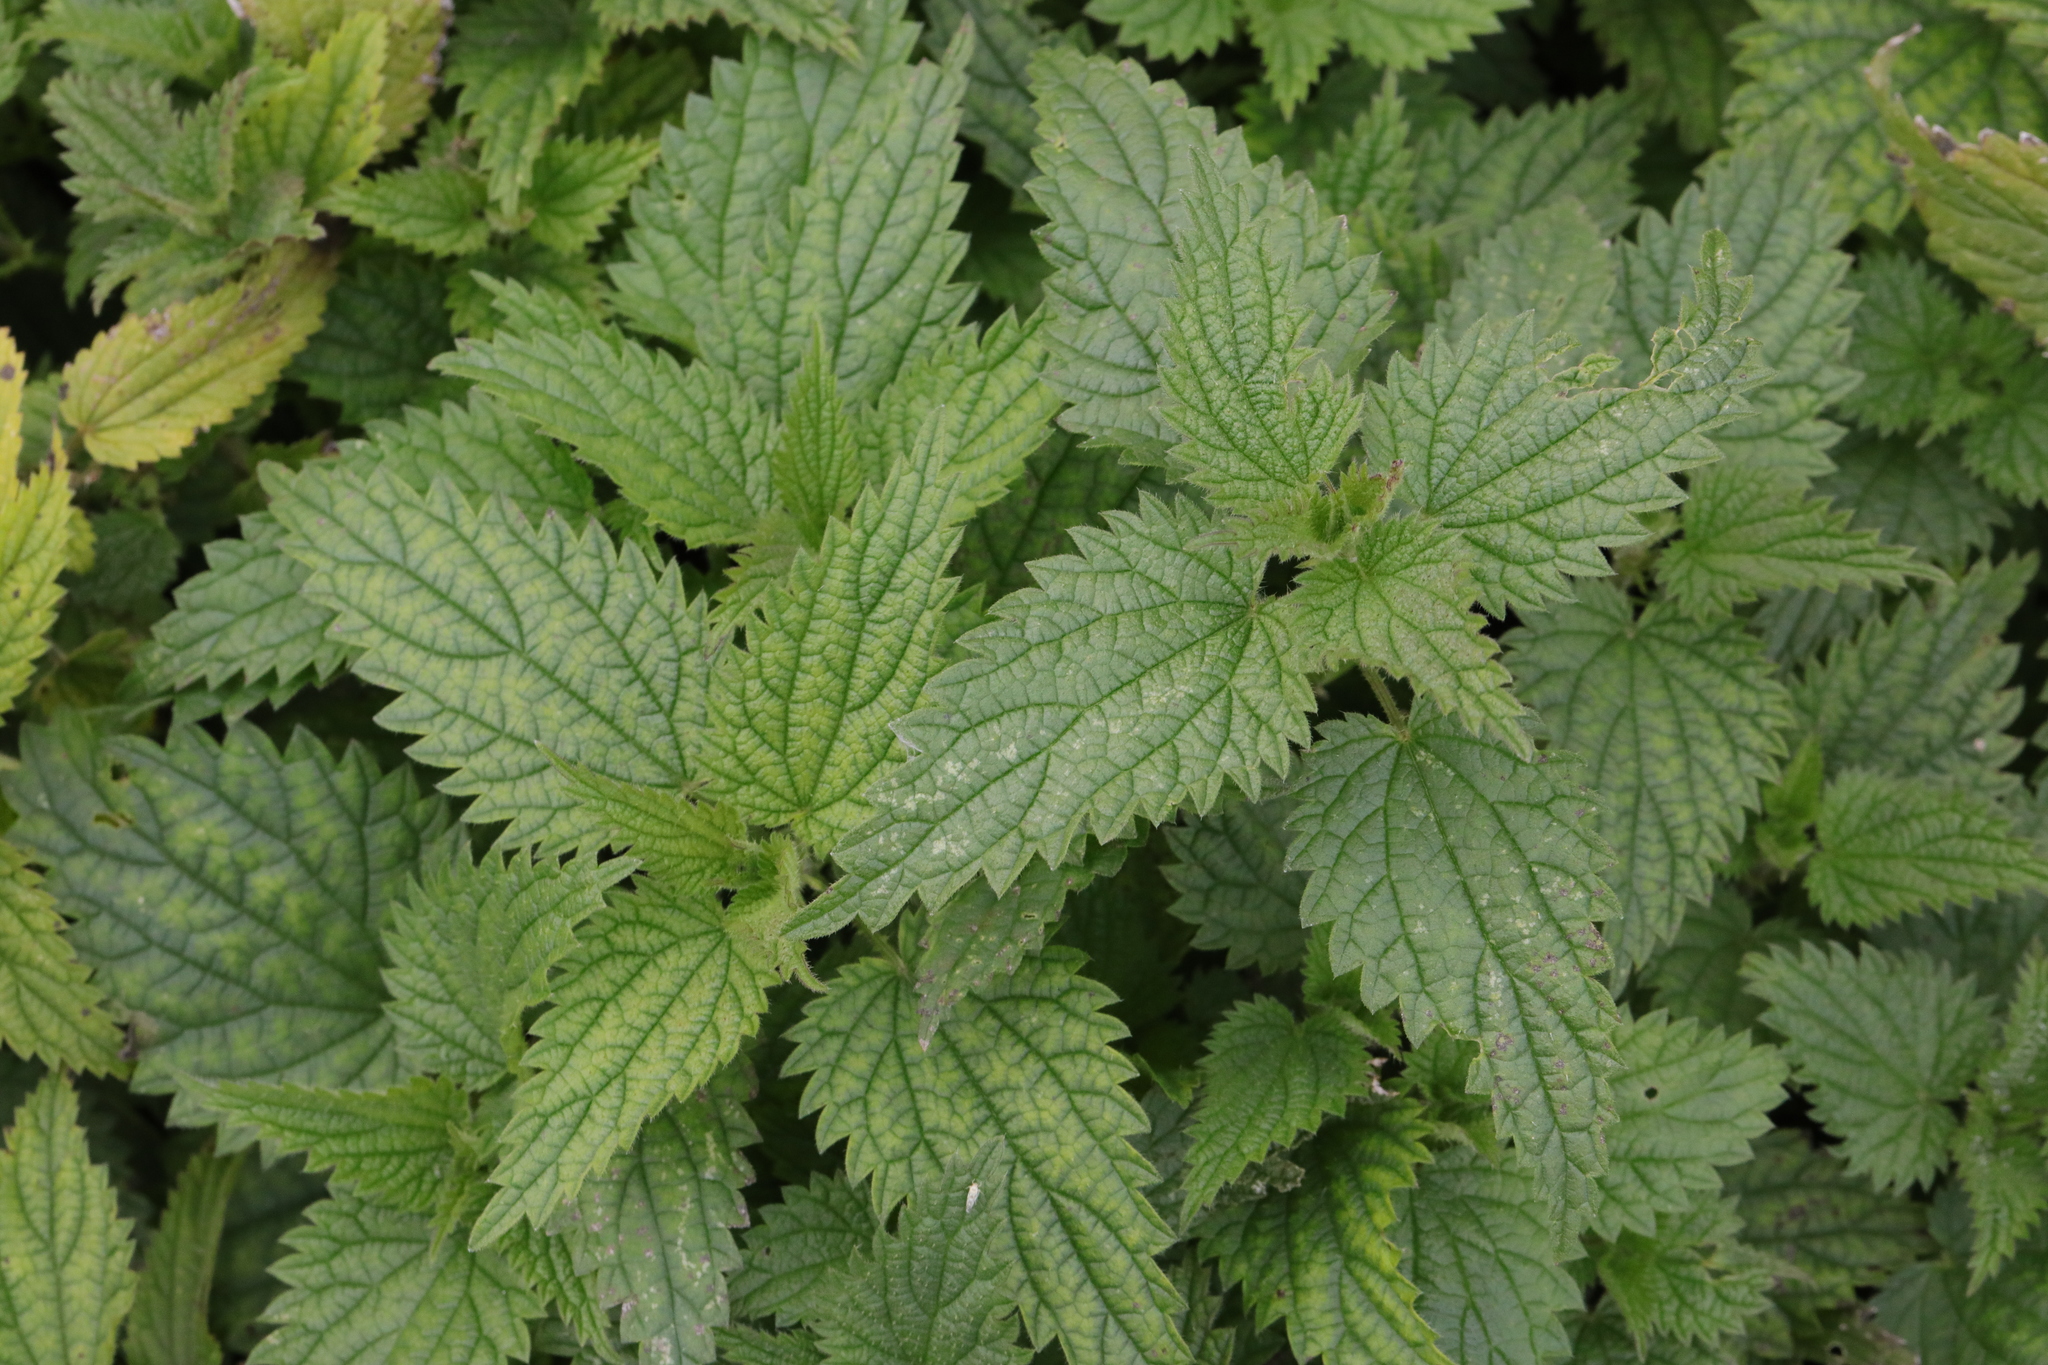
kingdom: Plantae
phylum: Tracheophyta
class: Magnoliopsida
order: Rosales
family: Urticaceae
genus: Urtica
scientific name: Urtica dioica
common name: Common nettle
